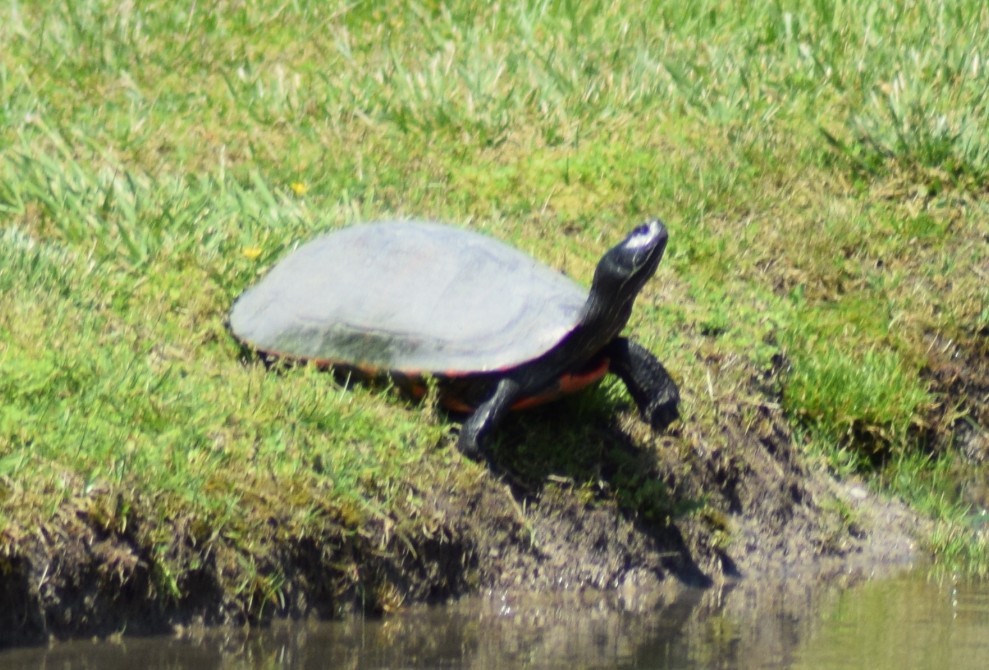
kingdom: Animalia
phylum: Chordata
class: Testudines
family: Emydidae
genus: Pseudemys
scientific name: Pseudemys rubriventris
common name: American red-bellied turtle
